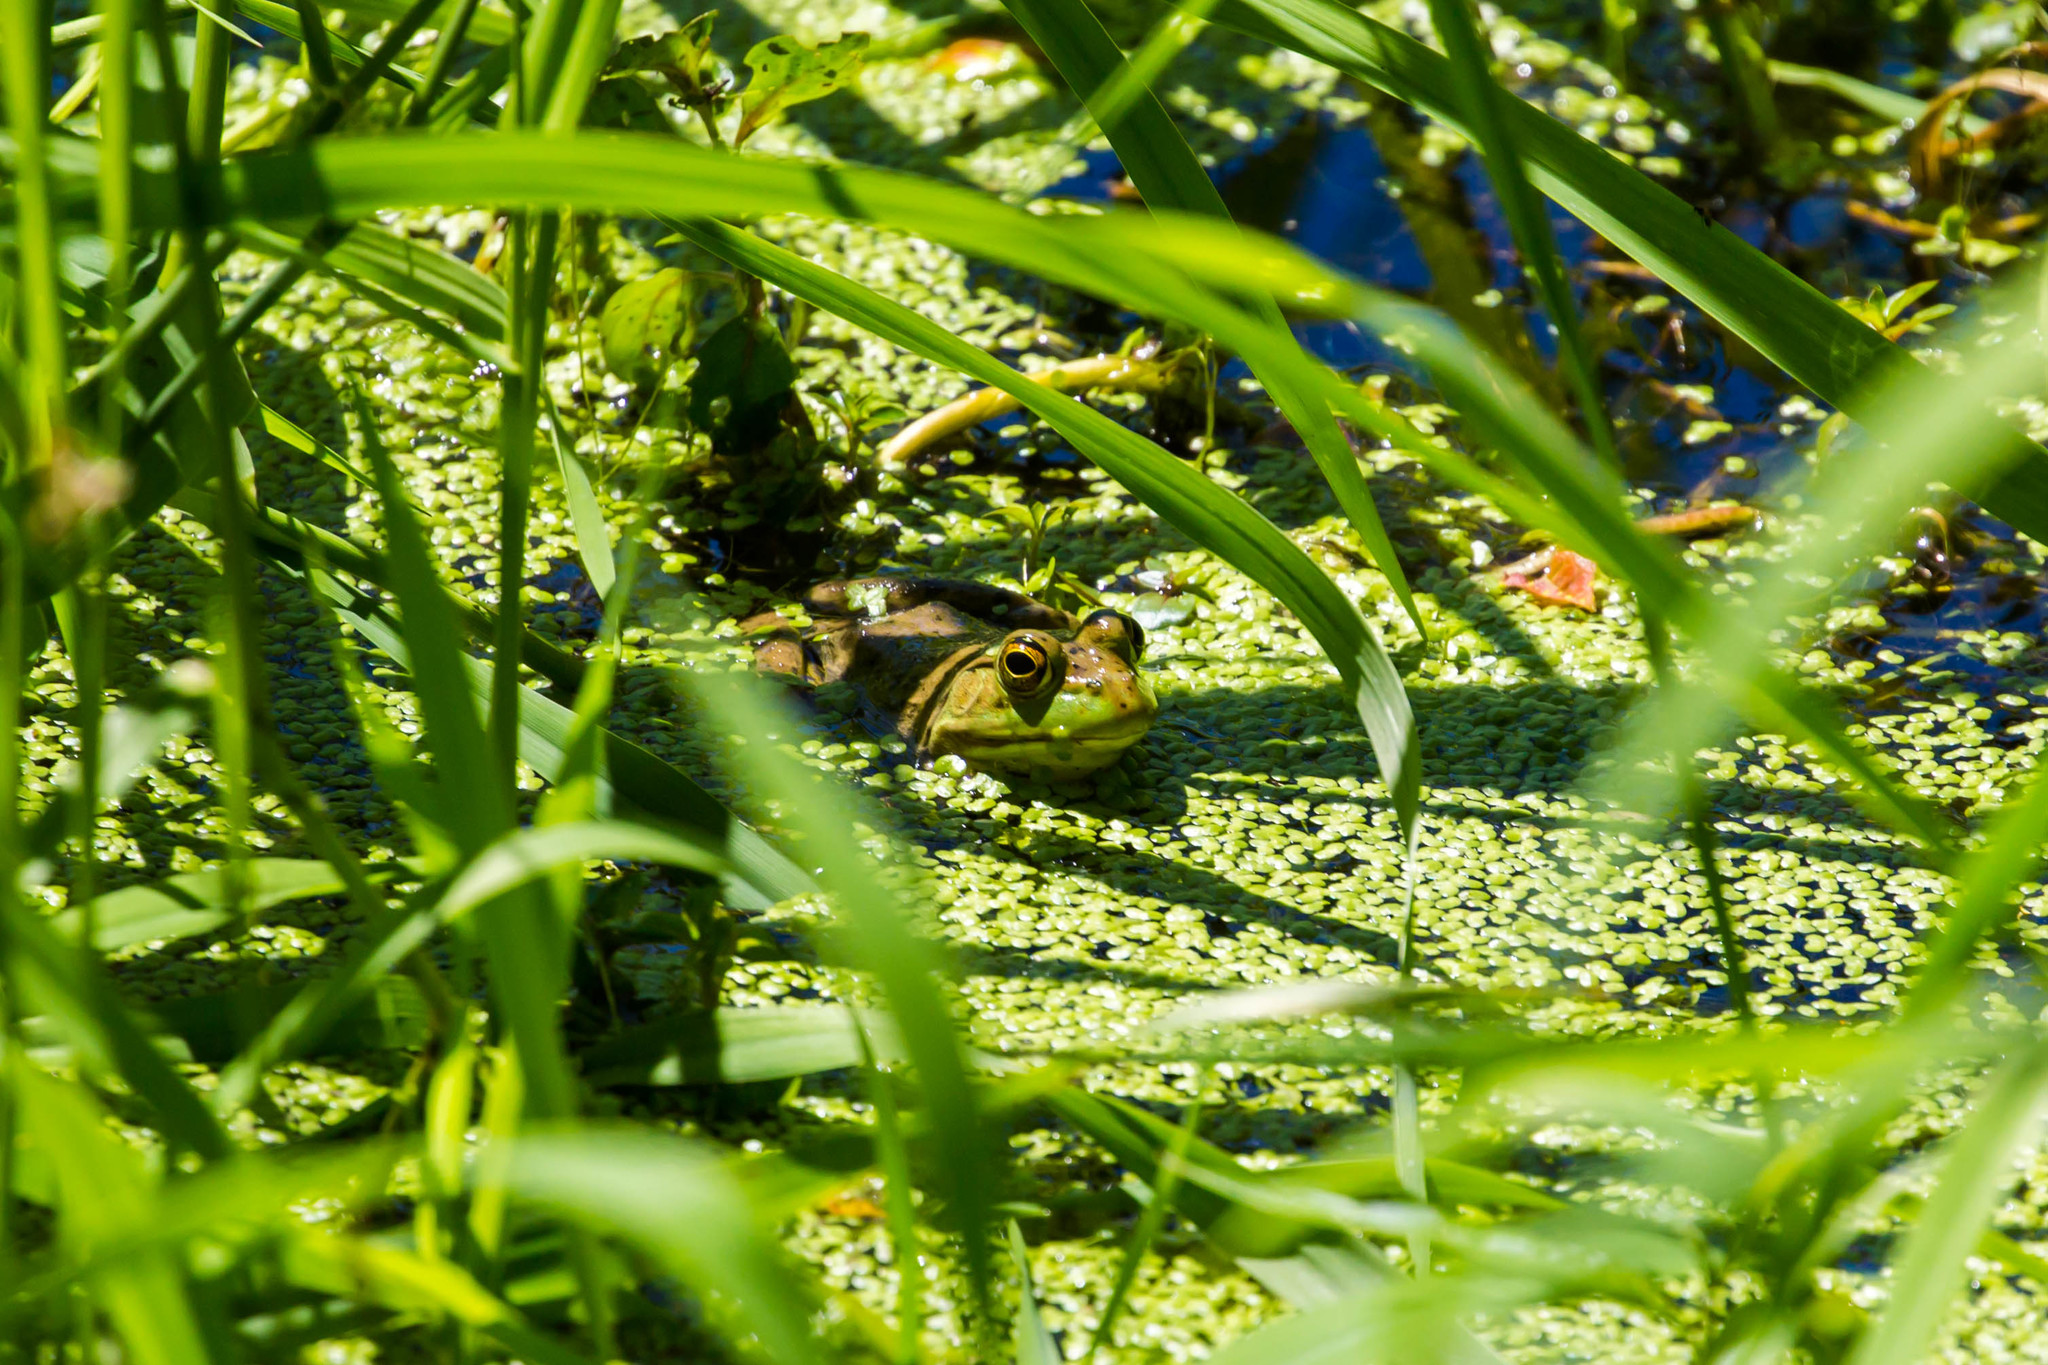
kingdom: Animalia
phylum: Chordata
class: Amphibia
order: Anura
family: Ranidae
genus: Lithobates
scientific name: Lithobates catesbeianus
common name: American bullfrog
